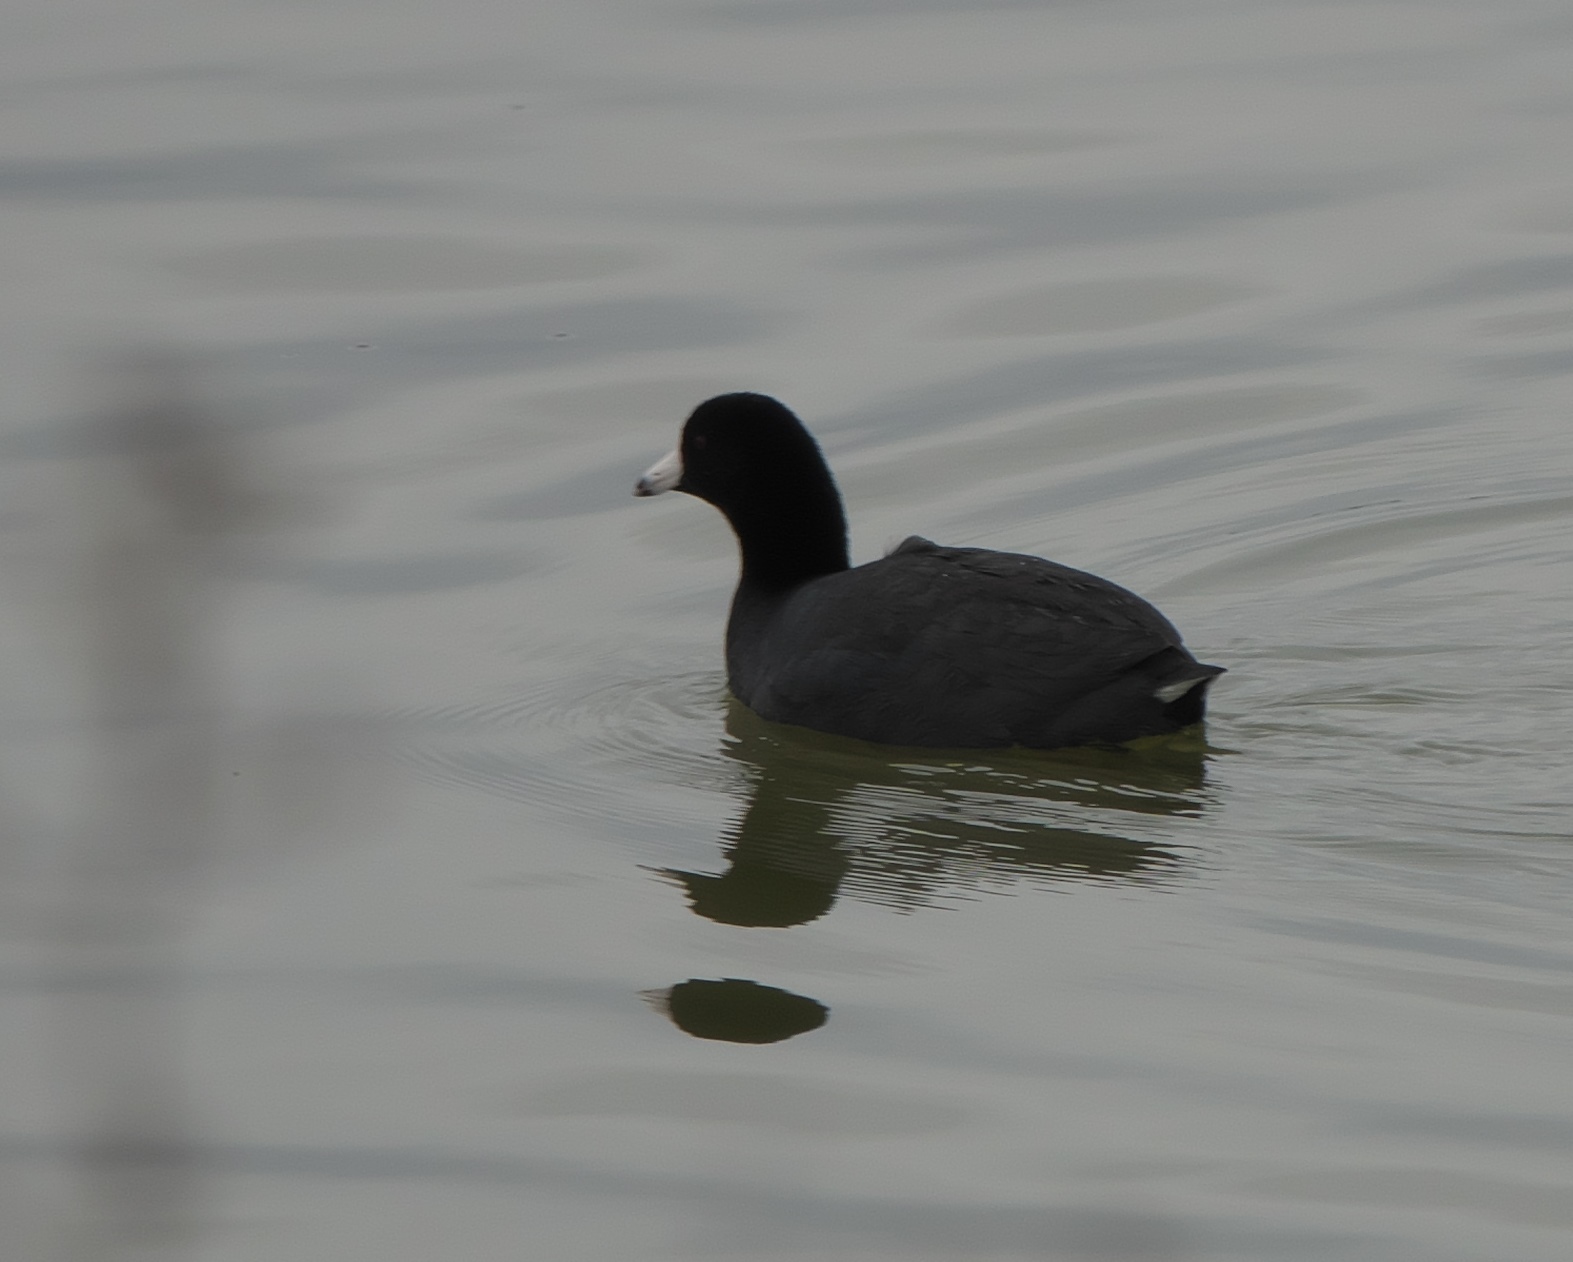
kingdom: Animalia
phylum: Chordata
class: Aves
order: Gruiformes
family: Rallidae
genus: Fulica
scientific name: Fulica americana
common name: American coot
